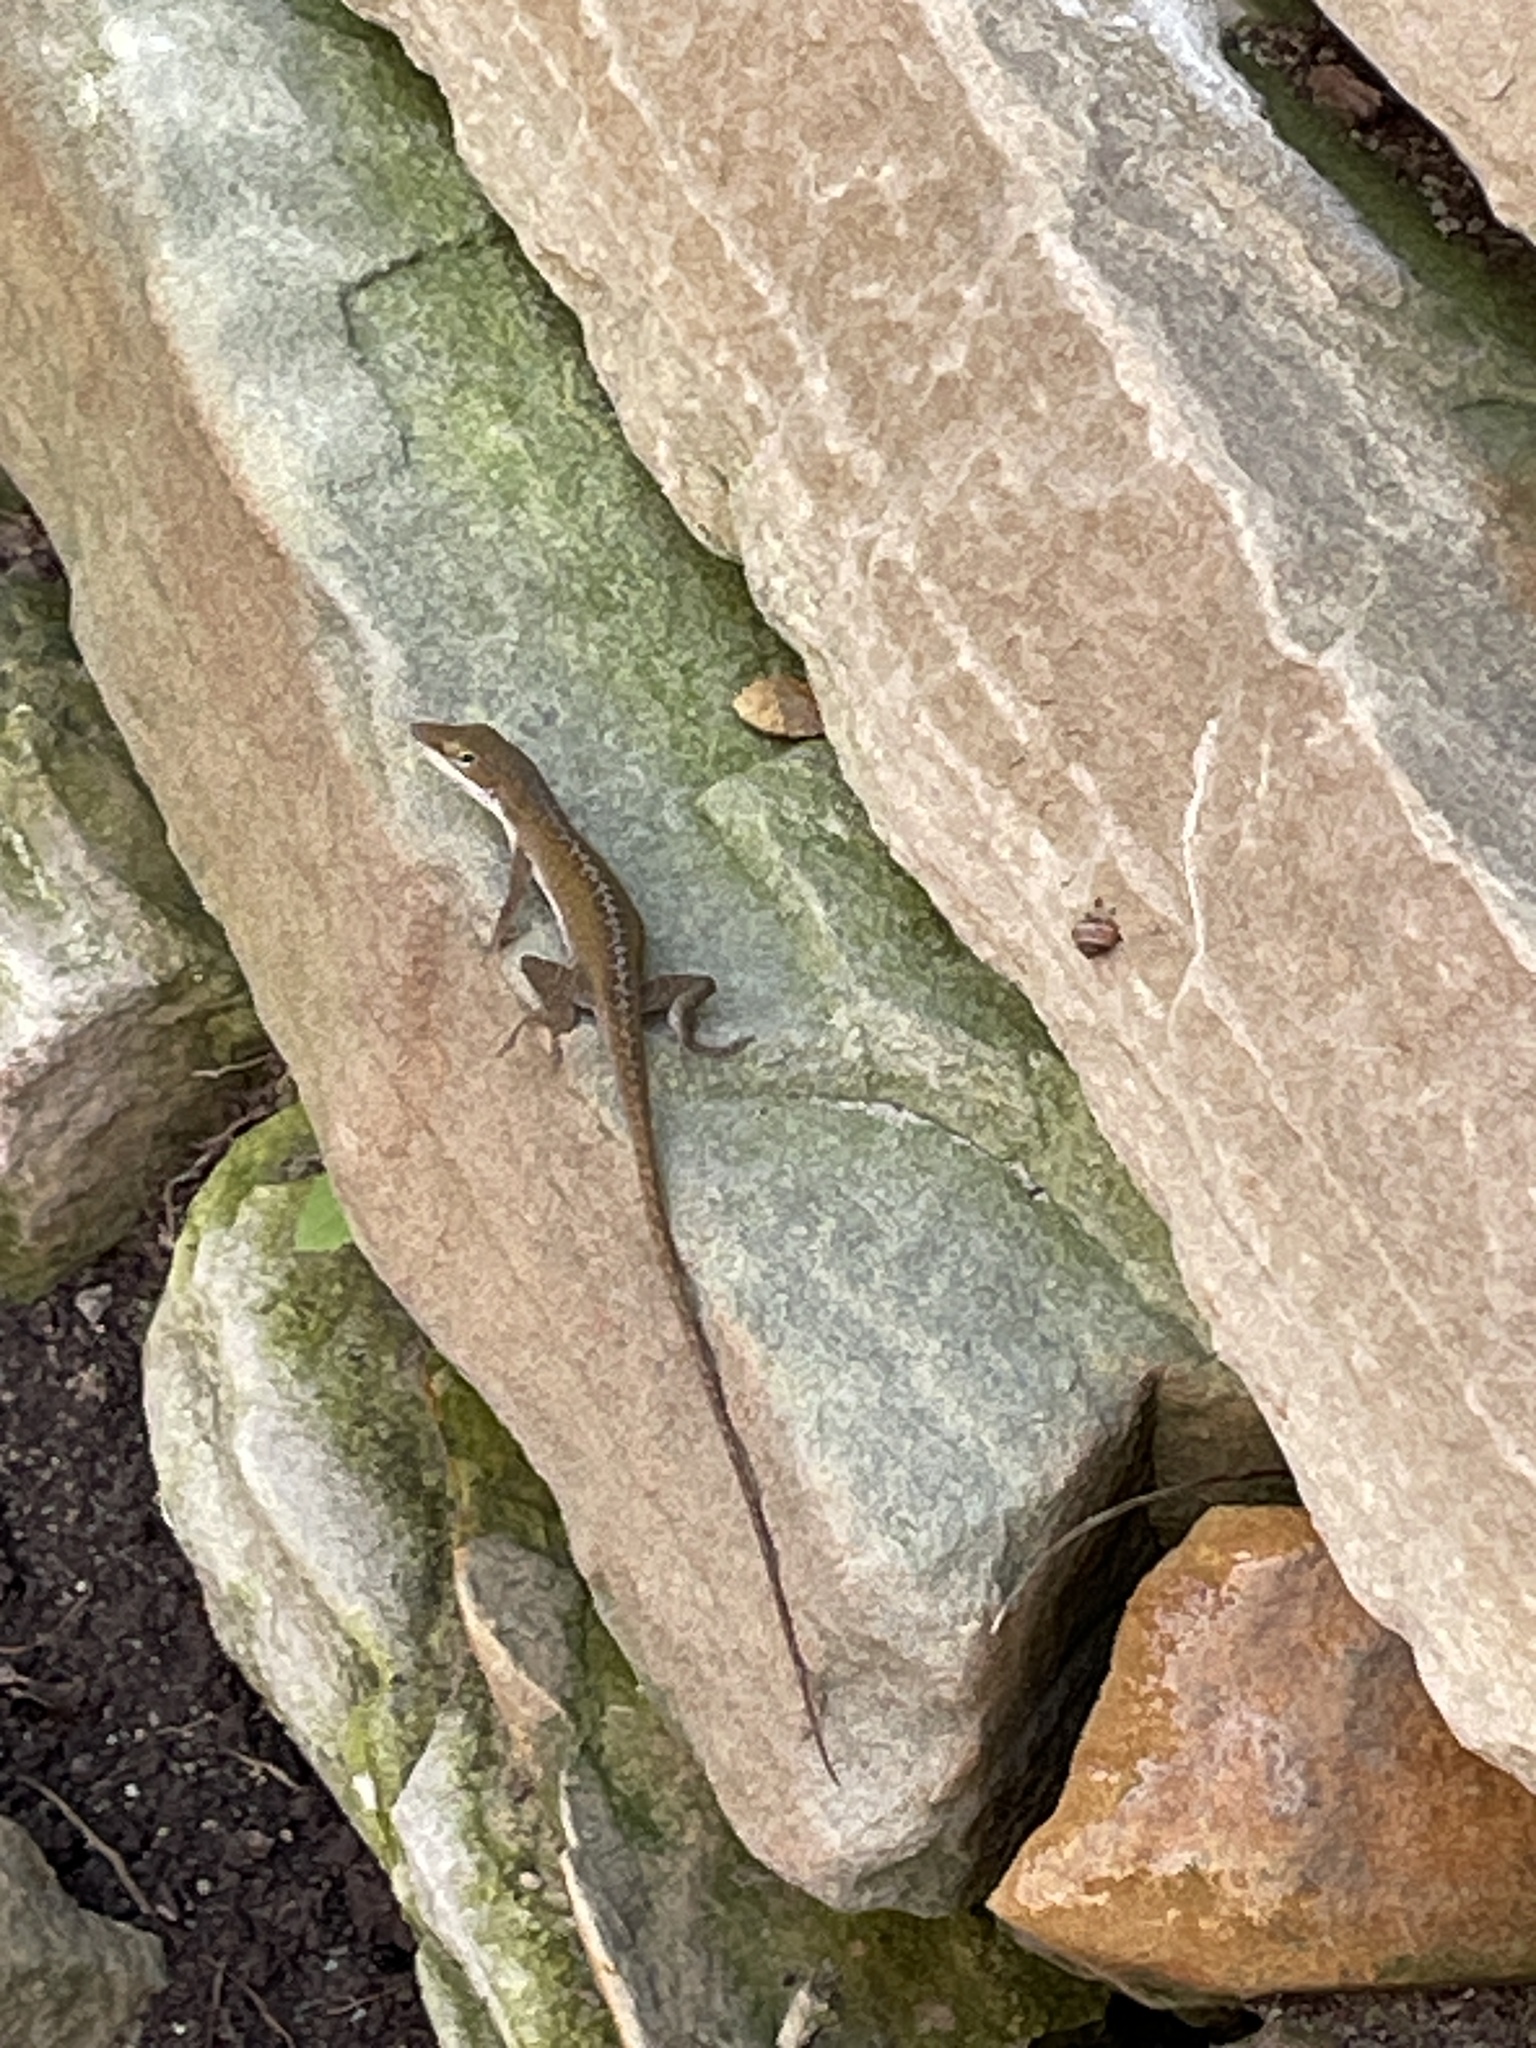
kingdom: Animalia
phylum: Chordata
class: Squamata
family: Dactyloidae
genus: Anolis
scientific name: Anolis carolinensis
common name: Green anole
